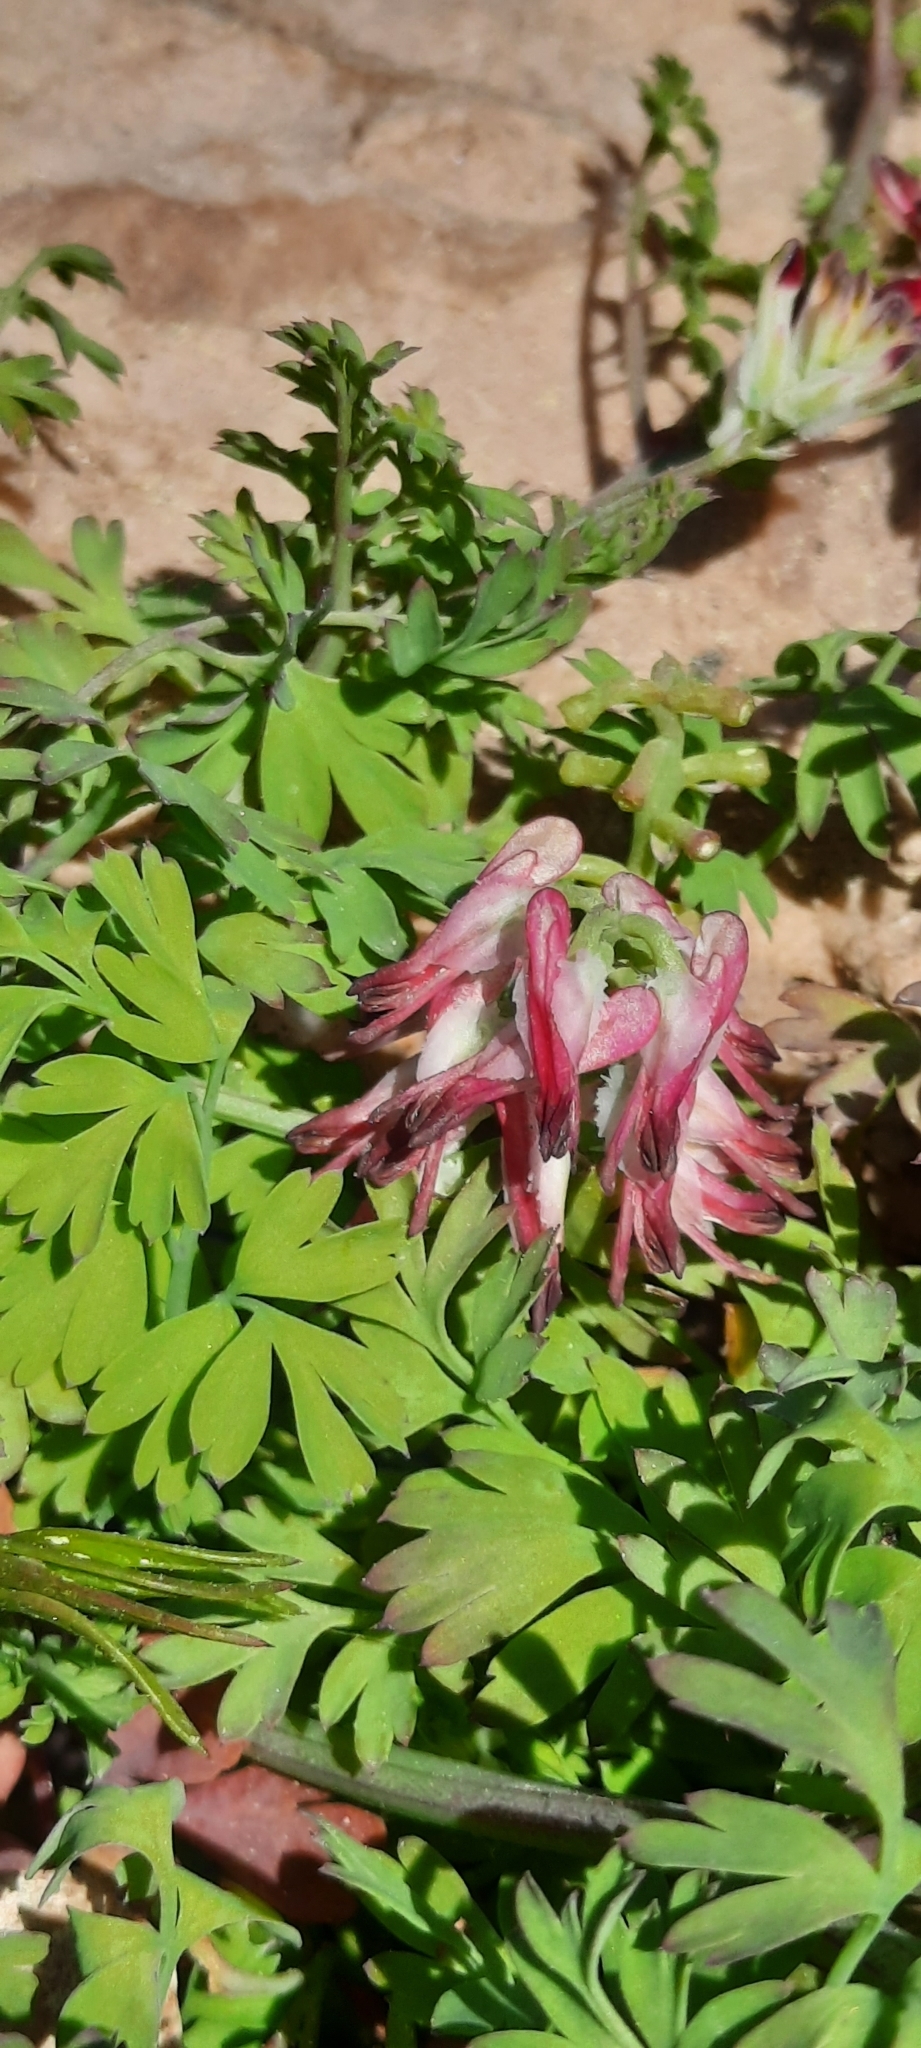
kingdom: Plantae
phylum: Tracheophyta
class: Magnoliopsida
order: Ranunculales
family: Papaveraceae
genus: Fumaria
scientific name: Fumaria capreolata
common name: White ramping-fumitory
